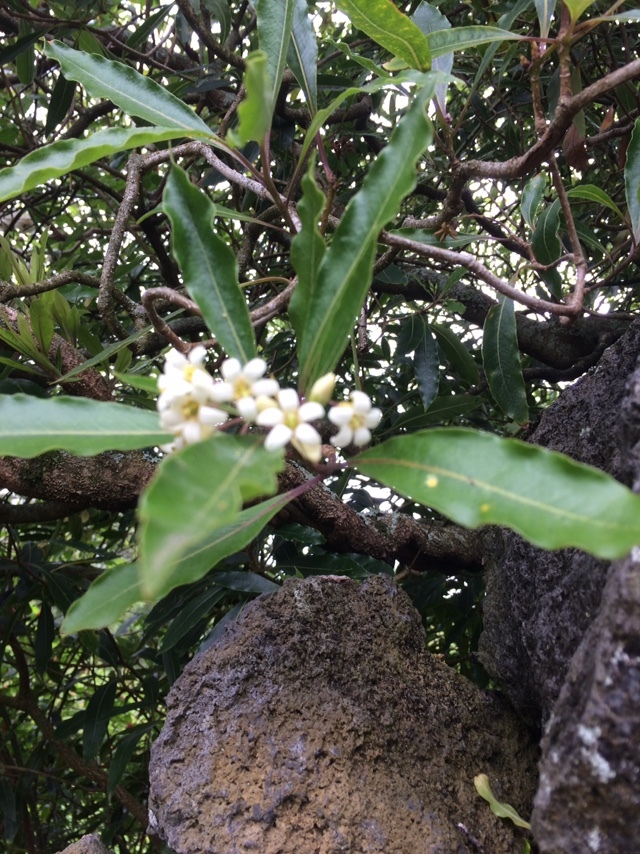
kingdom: Plantae
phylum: Tracheophyta
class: Magnoliopsida
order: Apiales
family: Pittosporaceae
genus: Pittosporum
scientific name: Pittosporum undulatum
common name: Australian cheesewood
